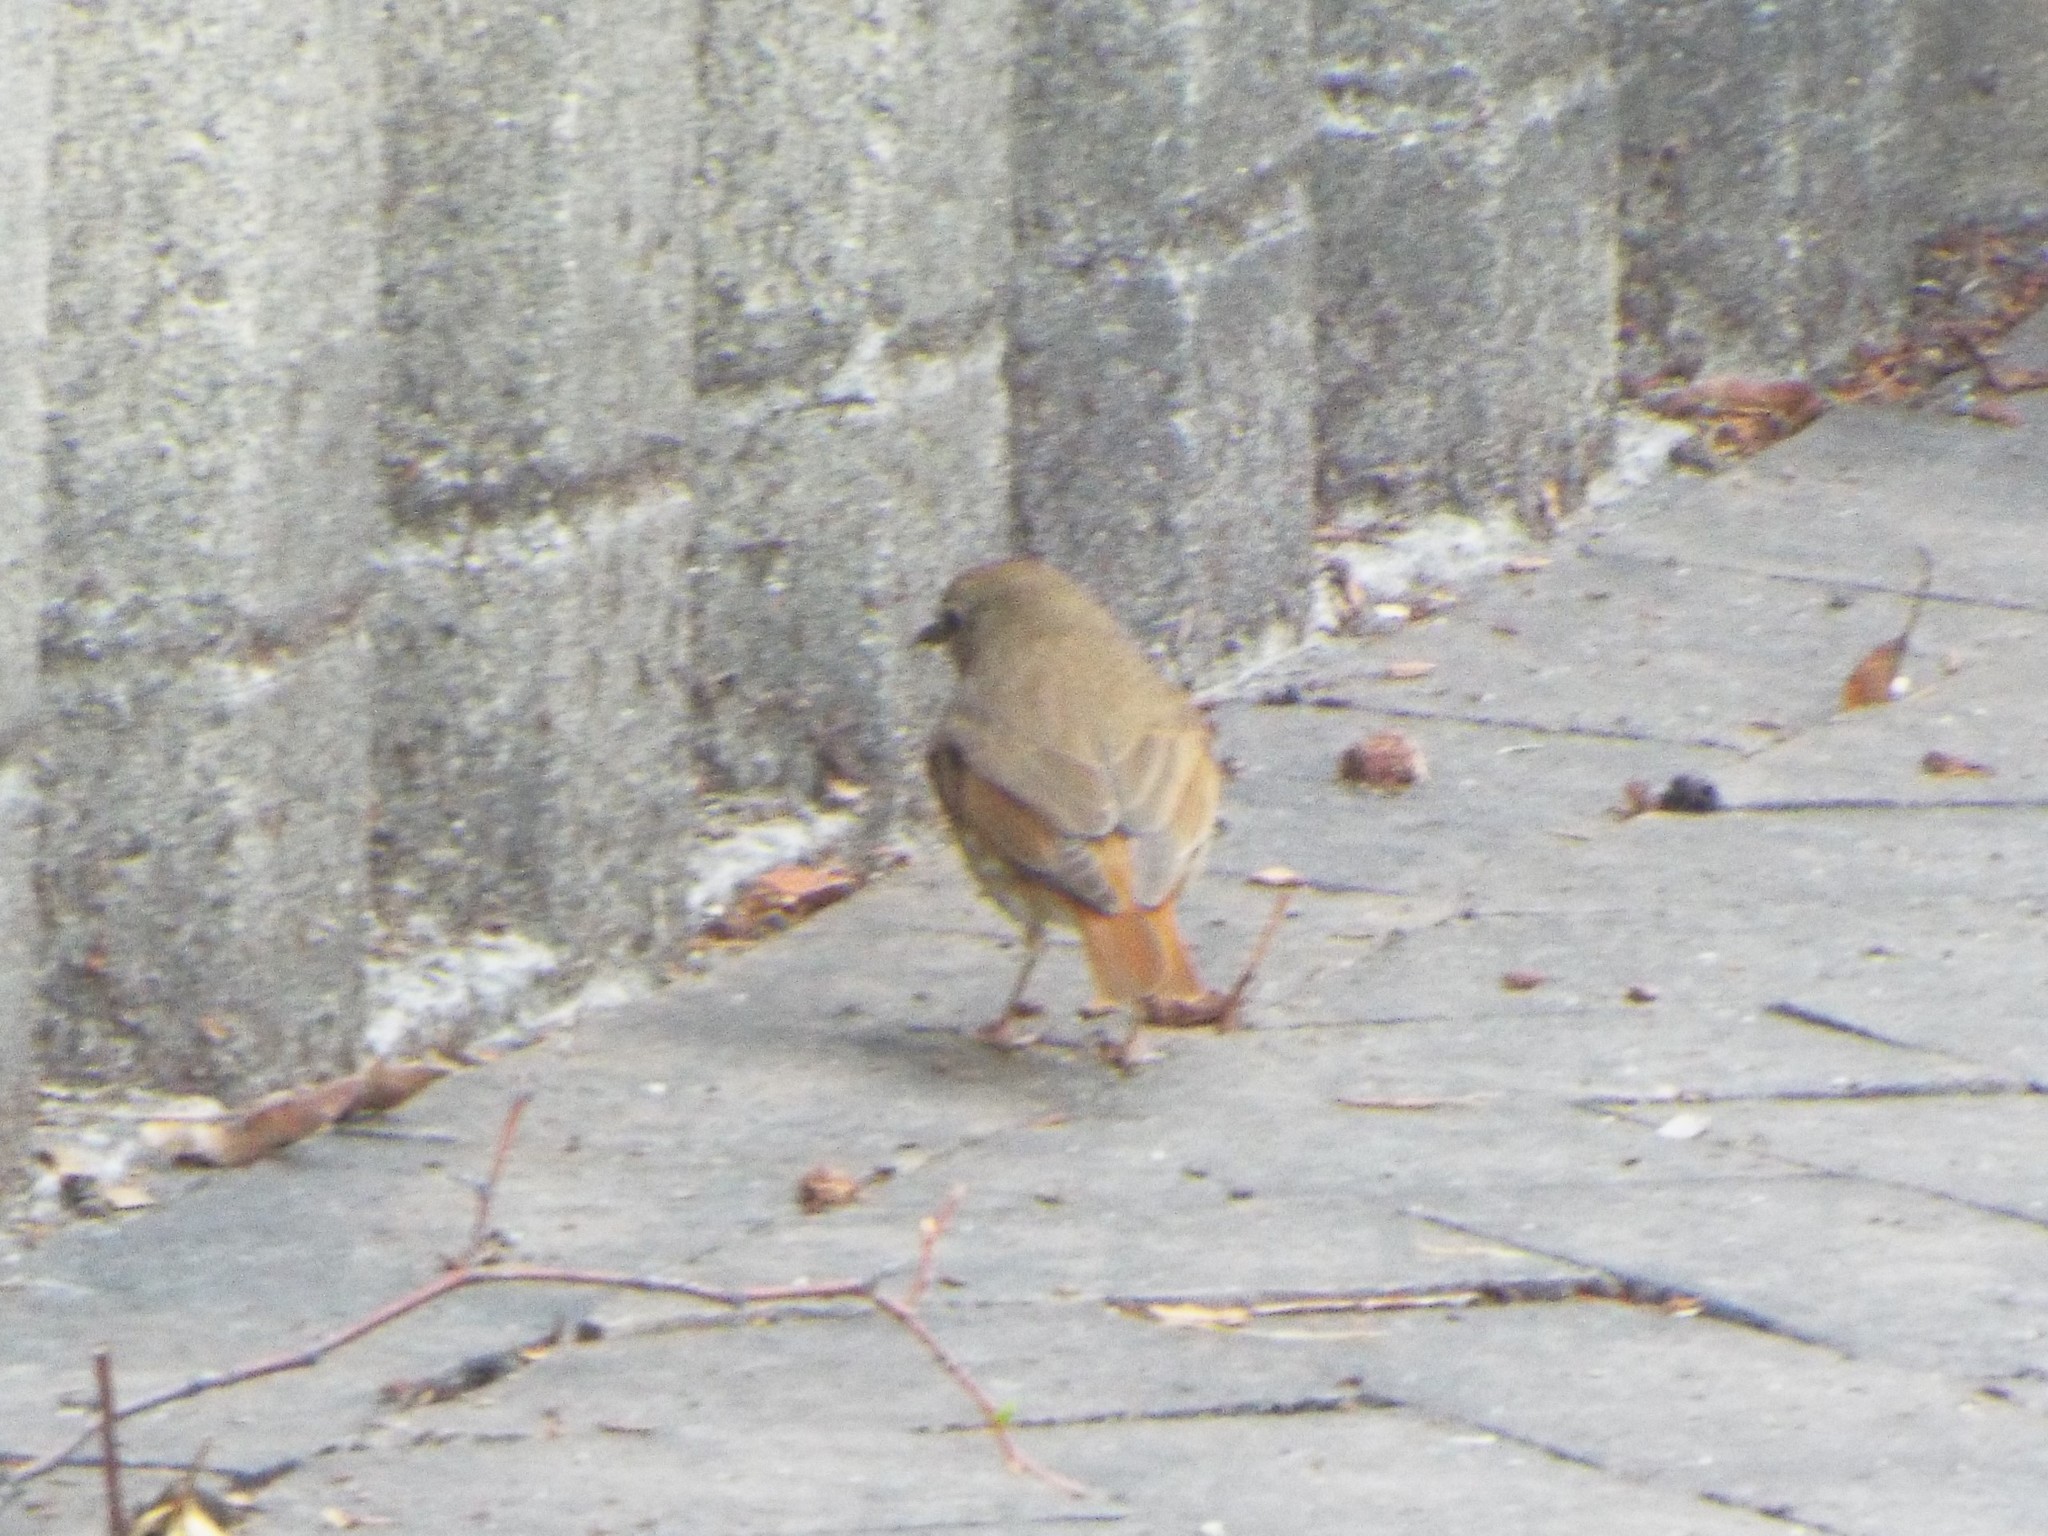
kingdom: Animalia
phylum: Chordata
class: Aves
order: Passeriformes
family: Turdidae
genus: Catharus
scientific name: Catharus guttatus
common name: Hermit thrush
